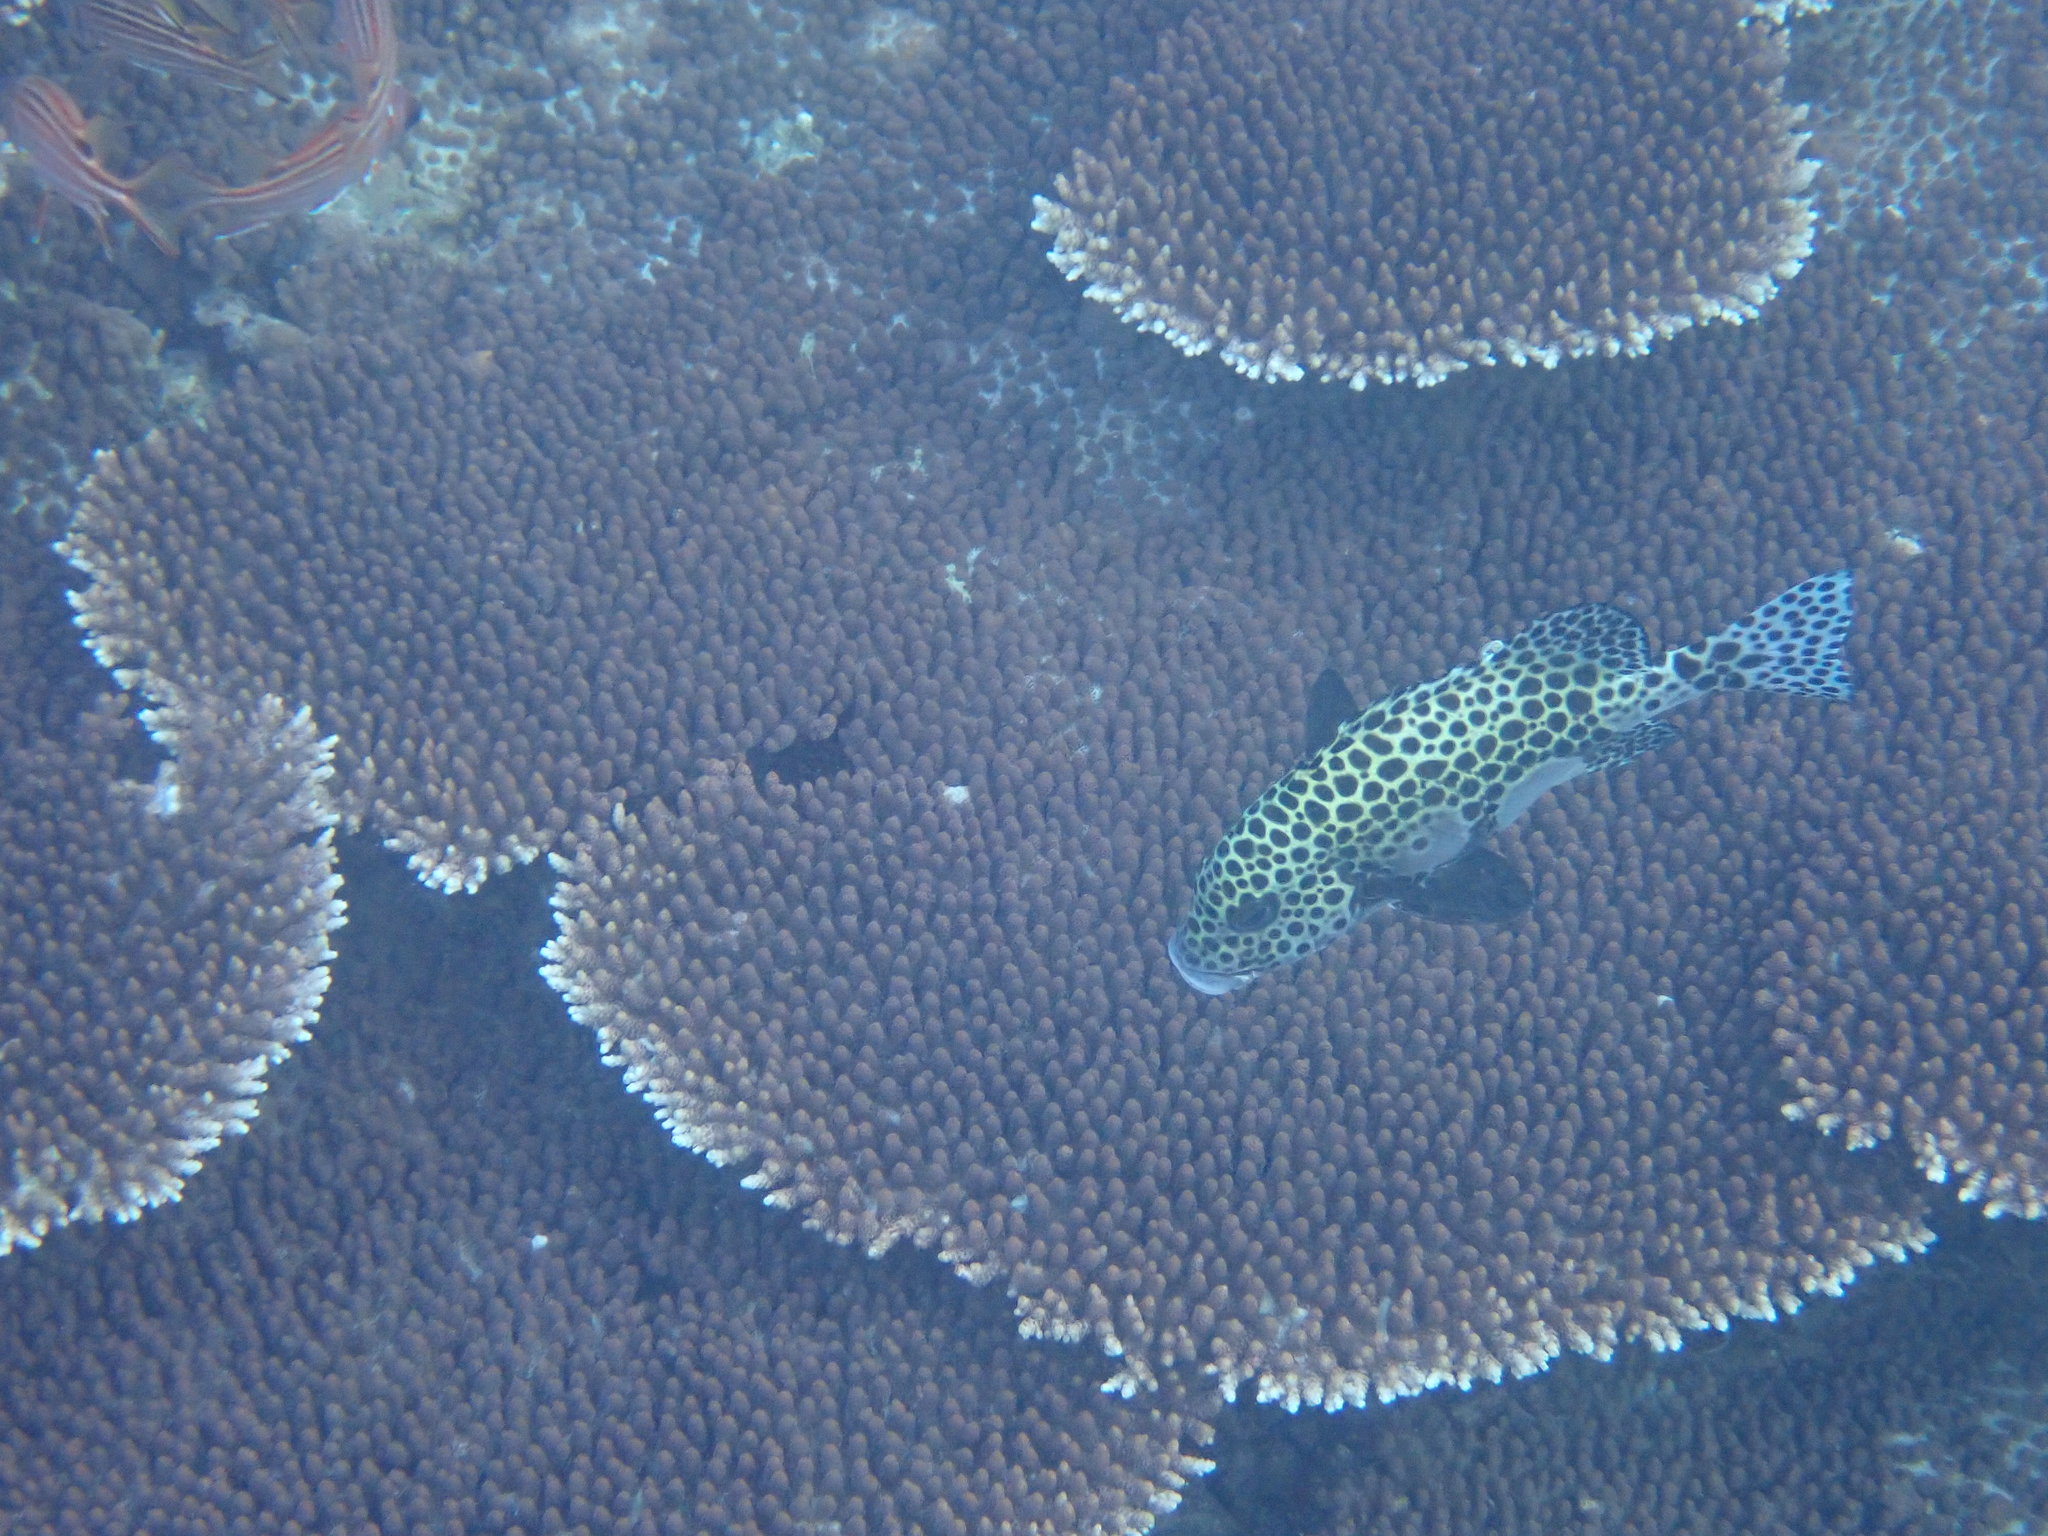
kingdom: Animalia
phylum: Chordata
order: Perciformes
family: Haemulidae
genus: Plectorhinchus
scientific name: Plectorhinchus chaetodonoides
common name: Harlequin sweetlips
